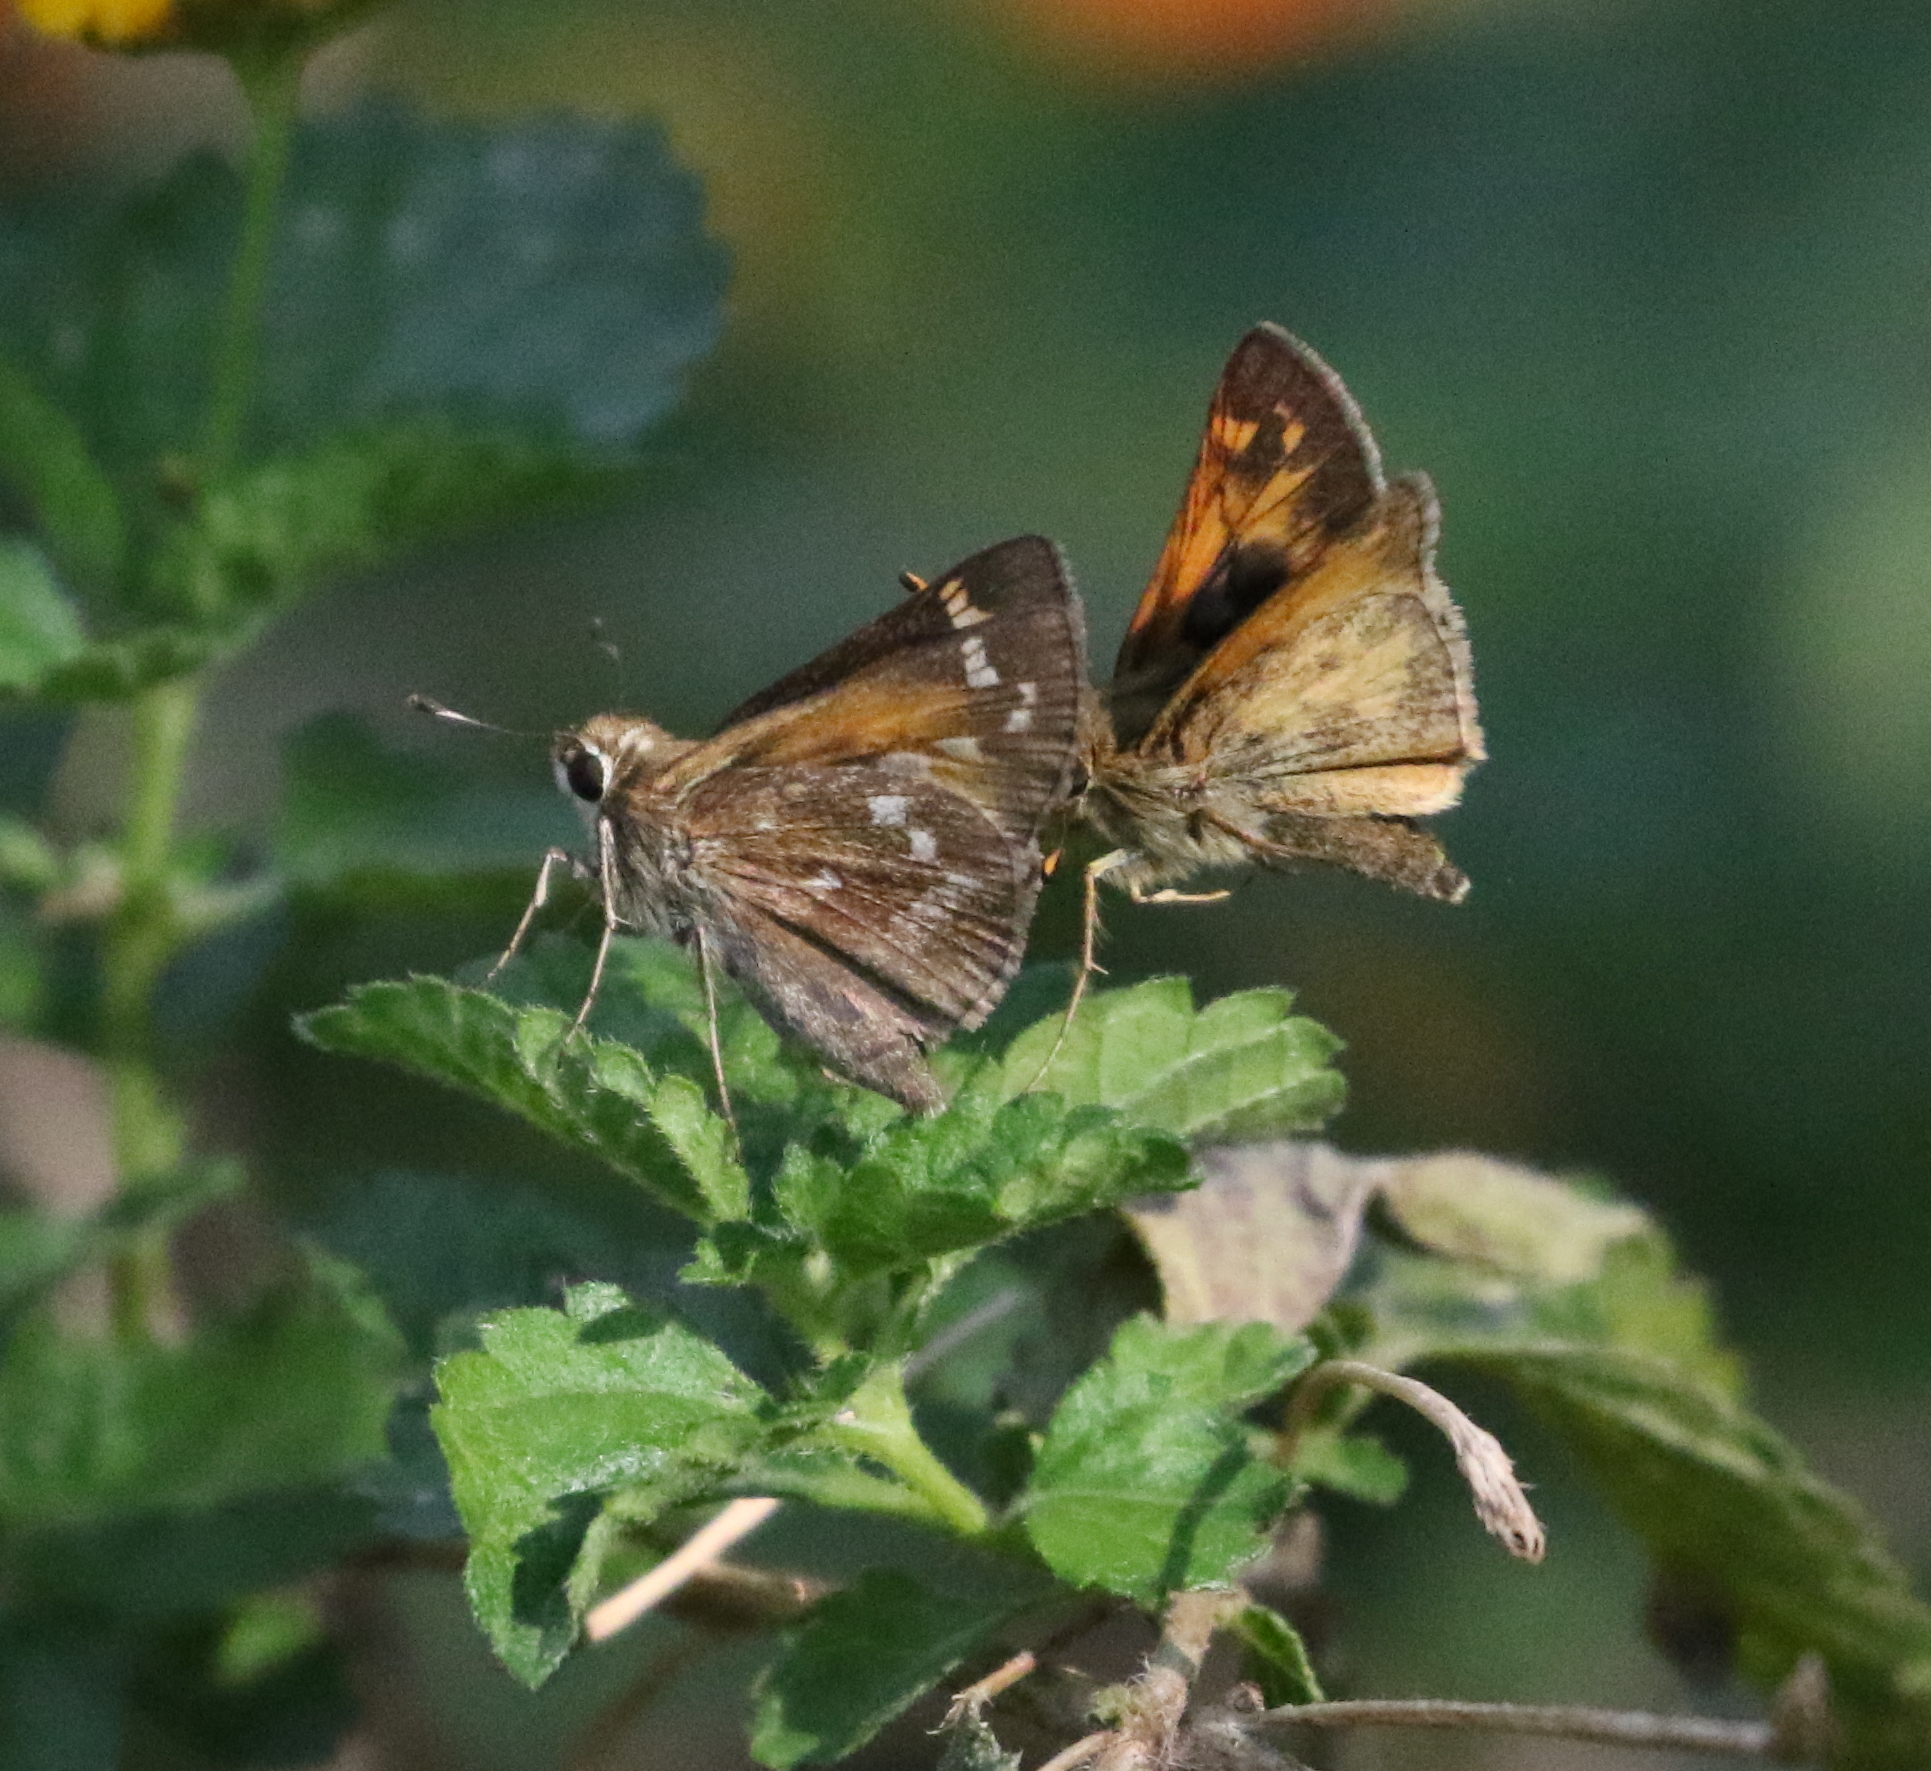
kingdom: Animalia
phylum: Arthropoda
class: Insecta
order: Lepidoptera
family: Hesperiidae
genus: Atalopedes
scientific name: Atalopedes
